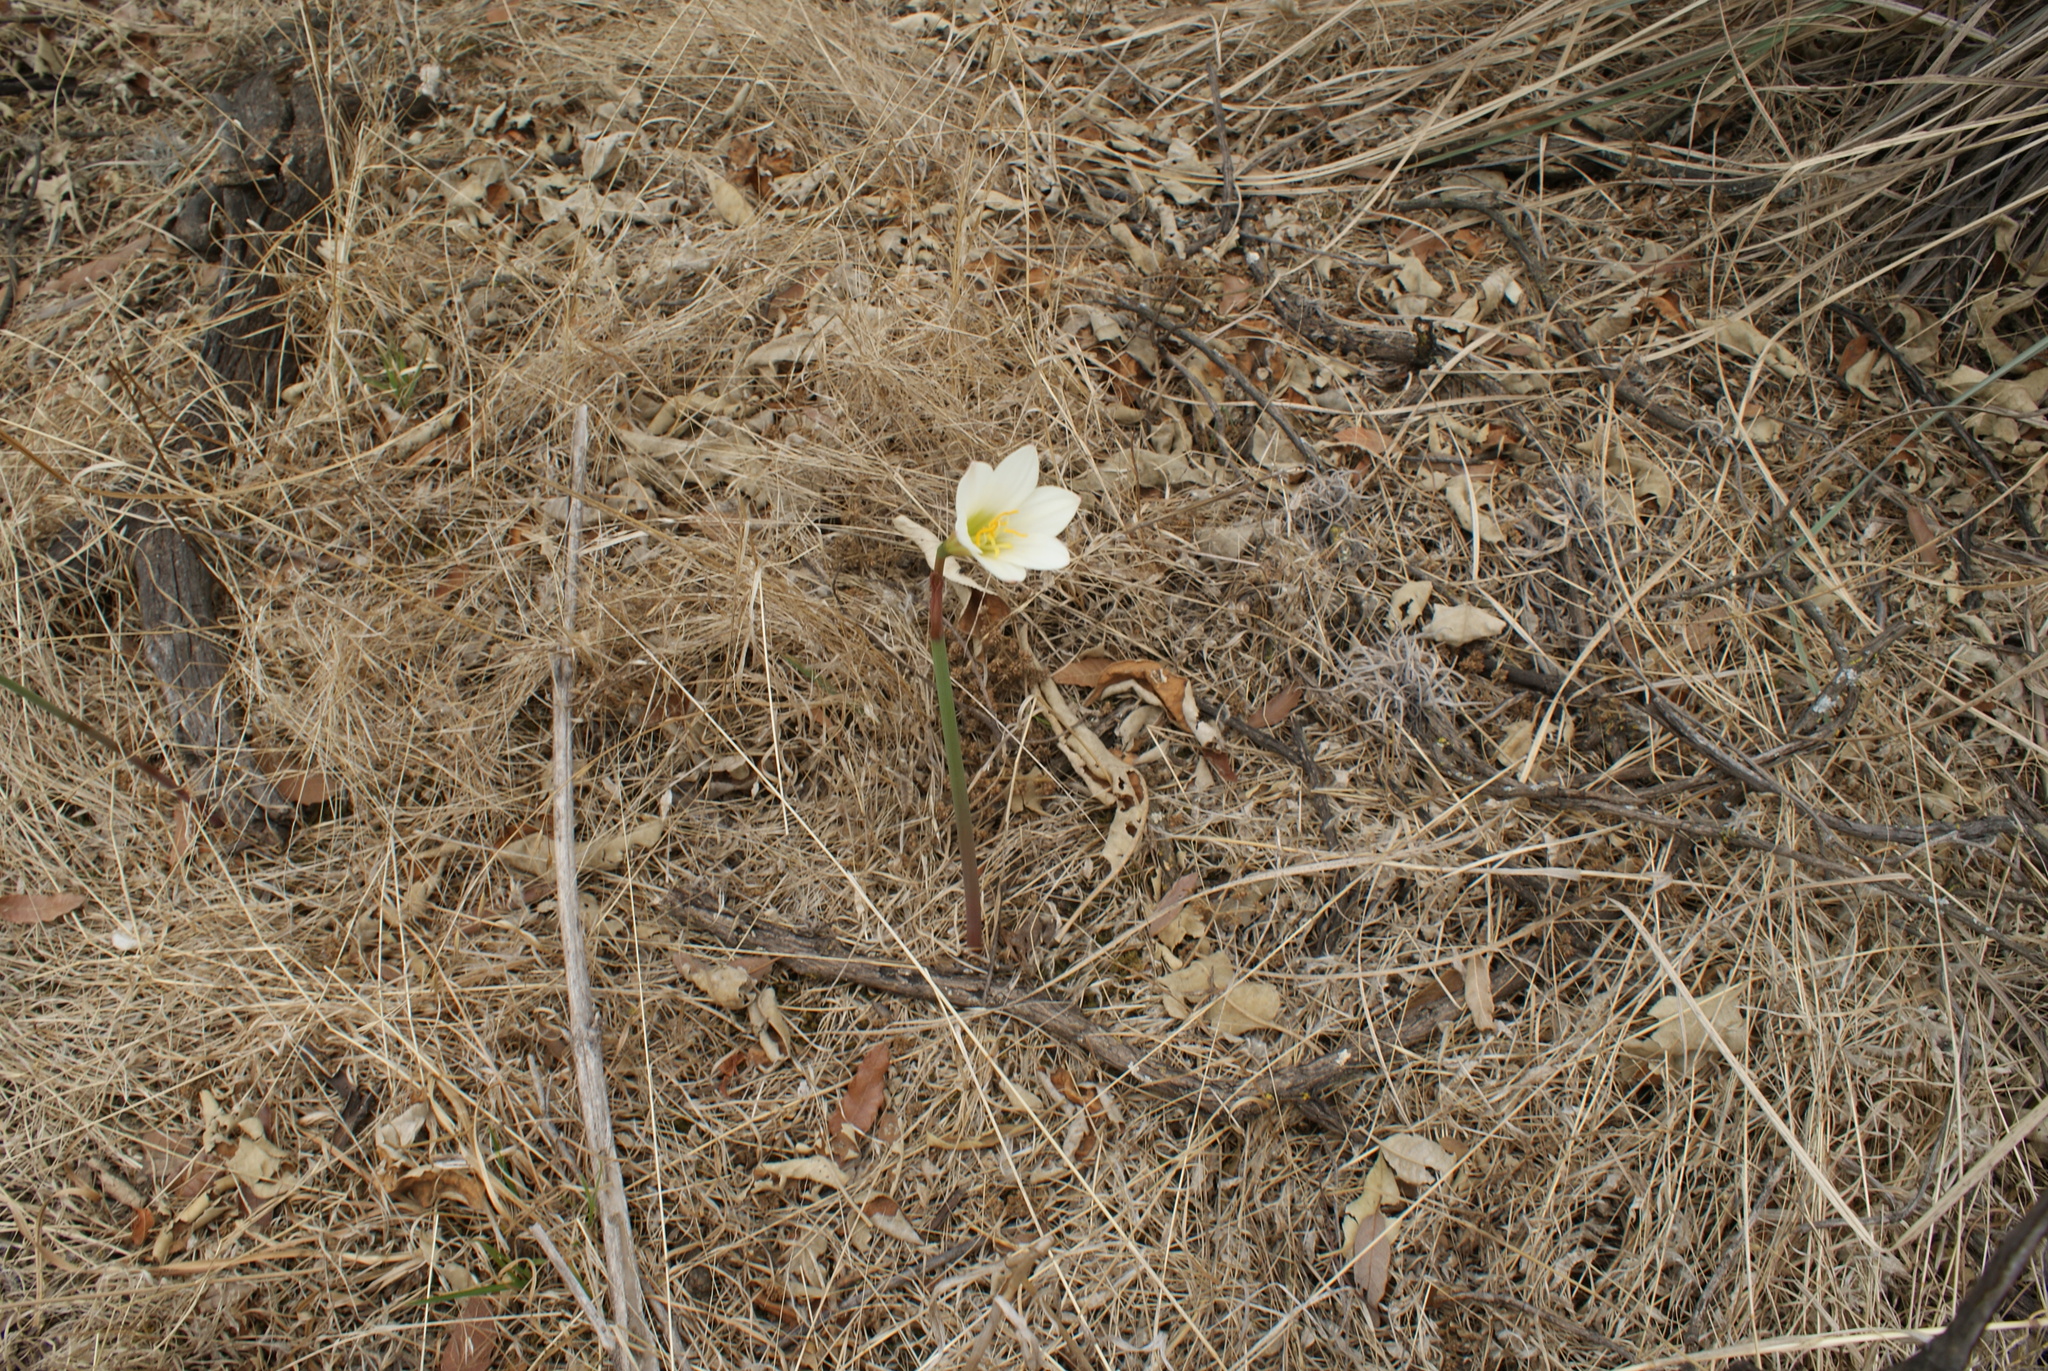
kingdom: Plantae
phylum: Tracheophyta
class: Liliopsida
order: Asparagales
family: Amaryllidaceae
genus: Zephyranthes
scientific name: Zephyranthes alba
